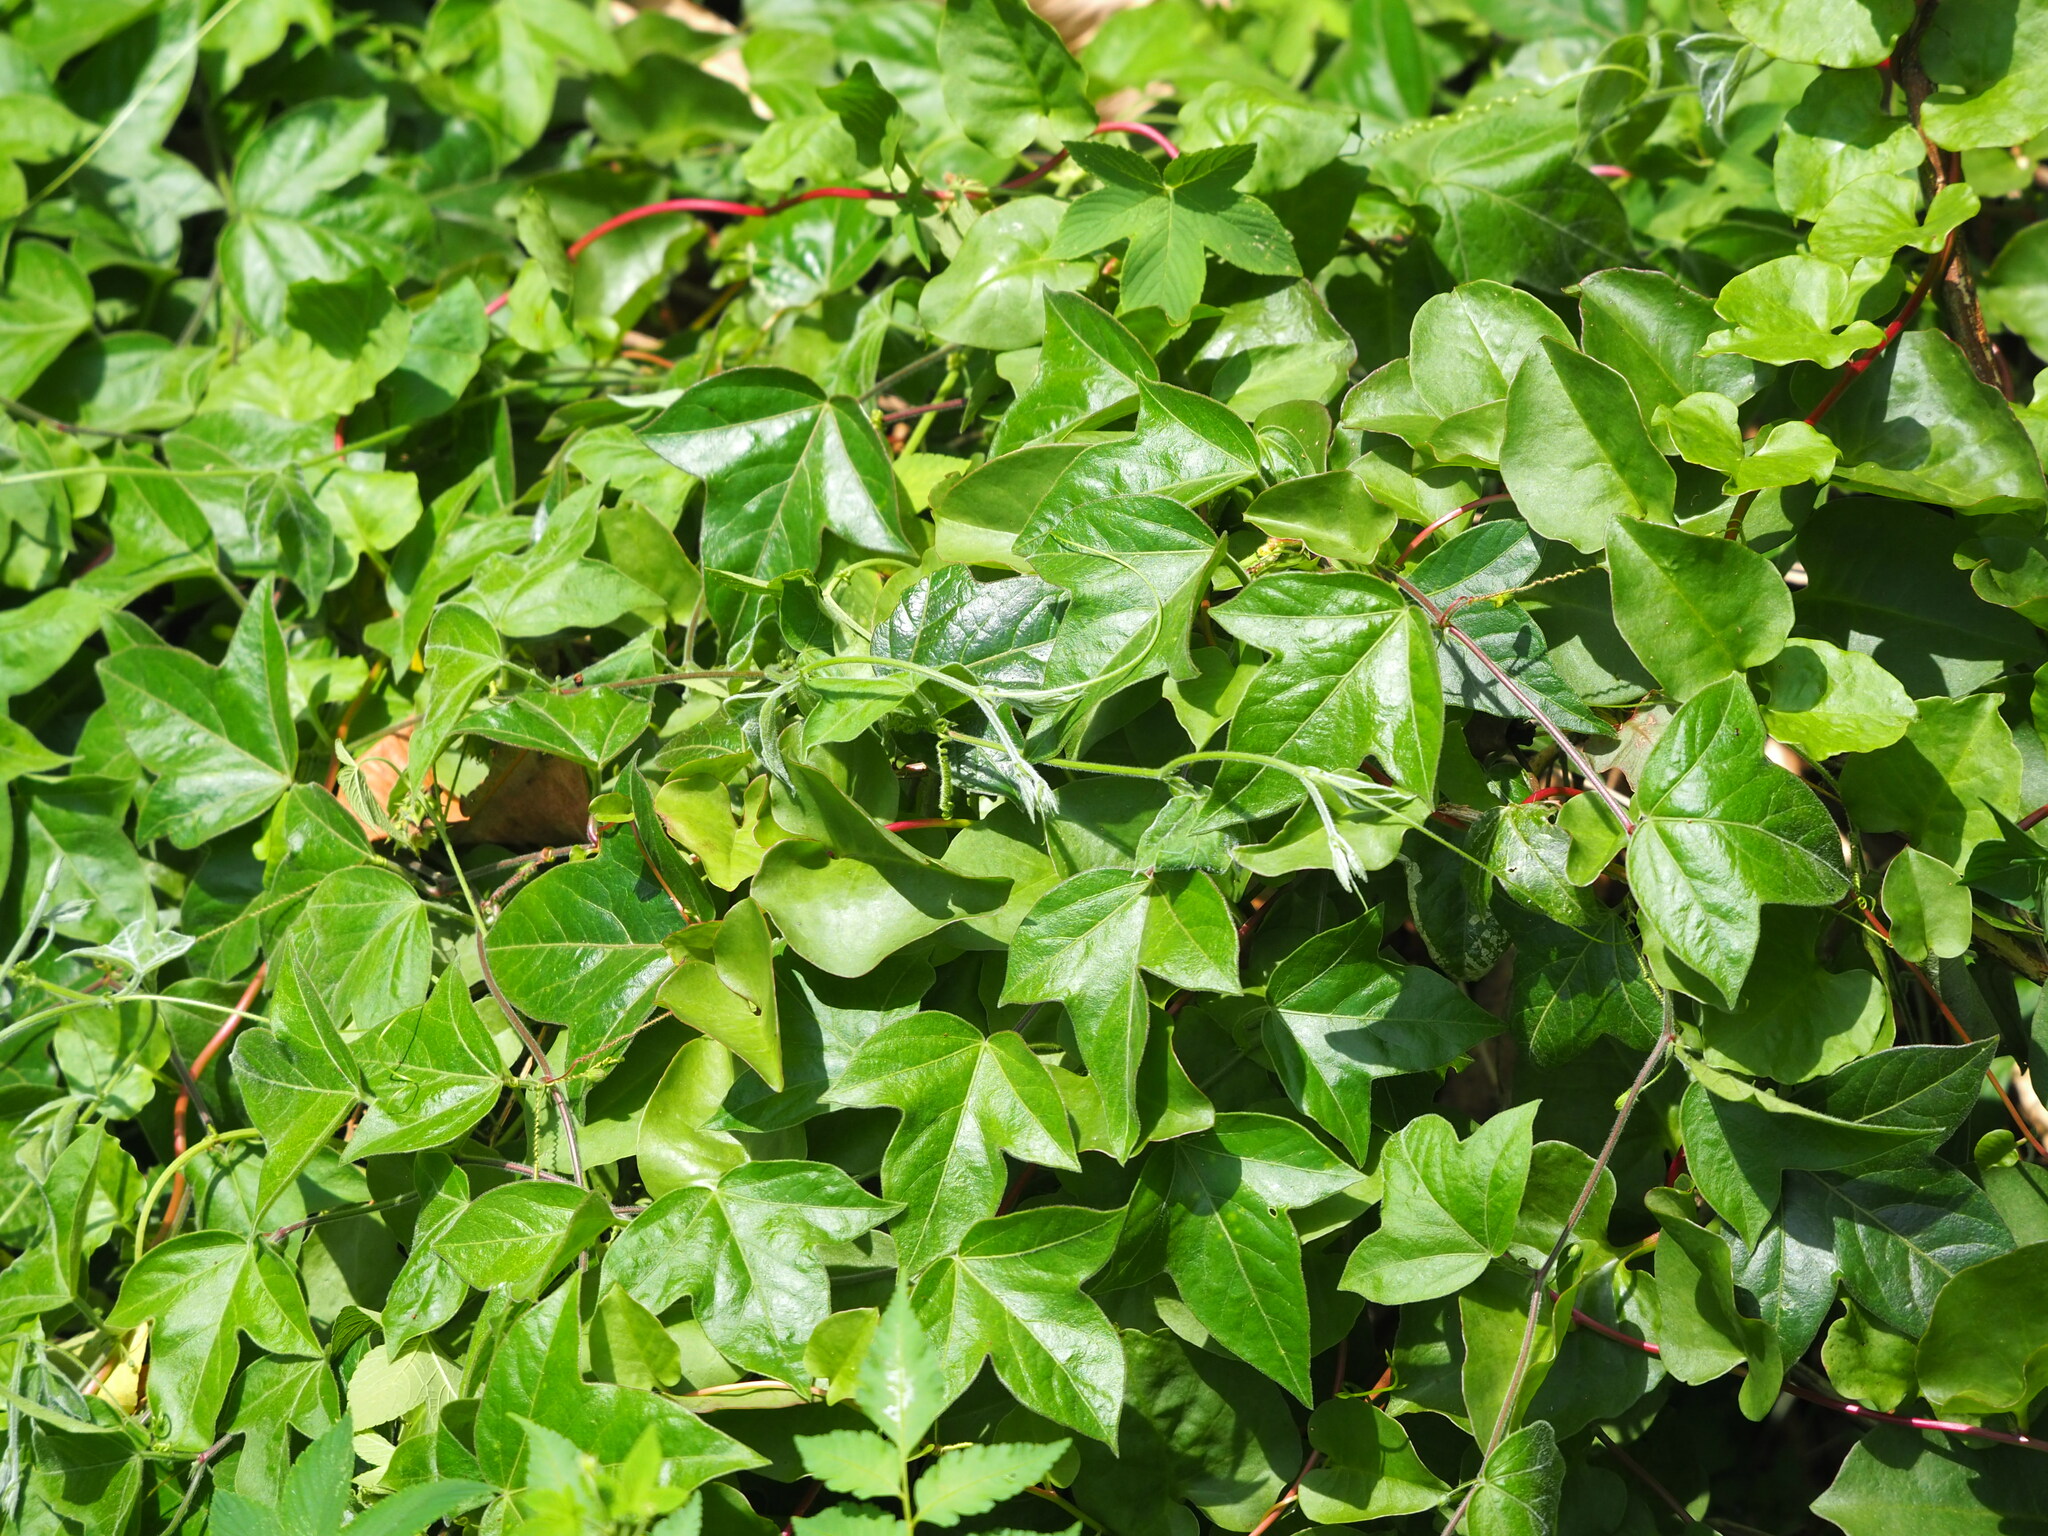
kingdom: Plantae
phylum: Tracheophyta
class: Magnoliopsida
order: Malpighiales
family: Passifloraceae
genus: Passiflora
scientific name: Passiflora suberosa
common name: Wild passionfruit
